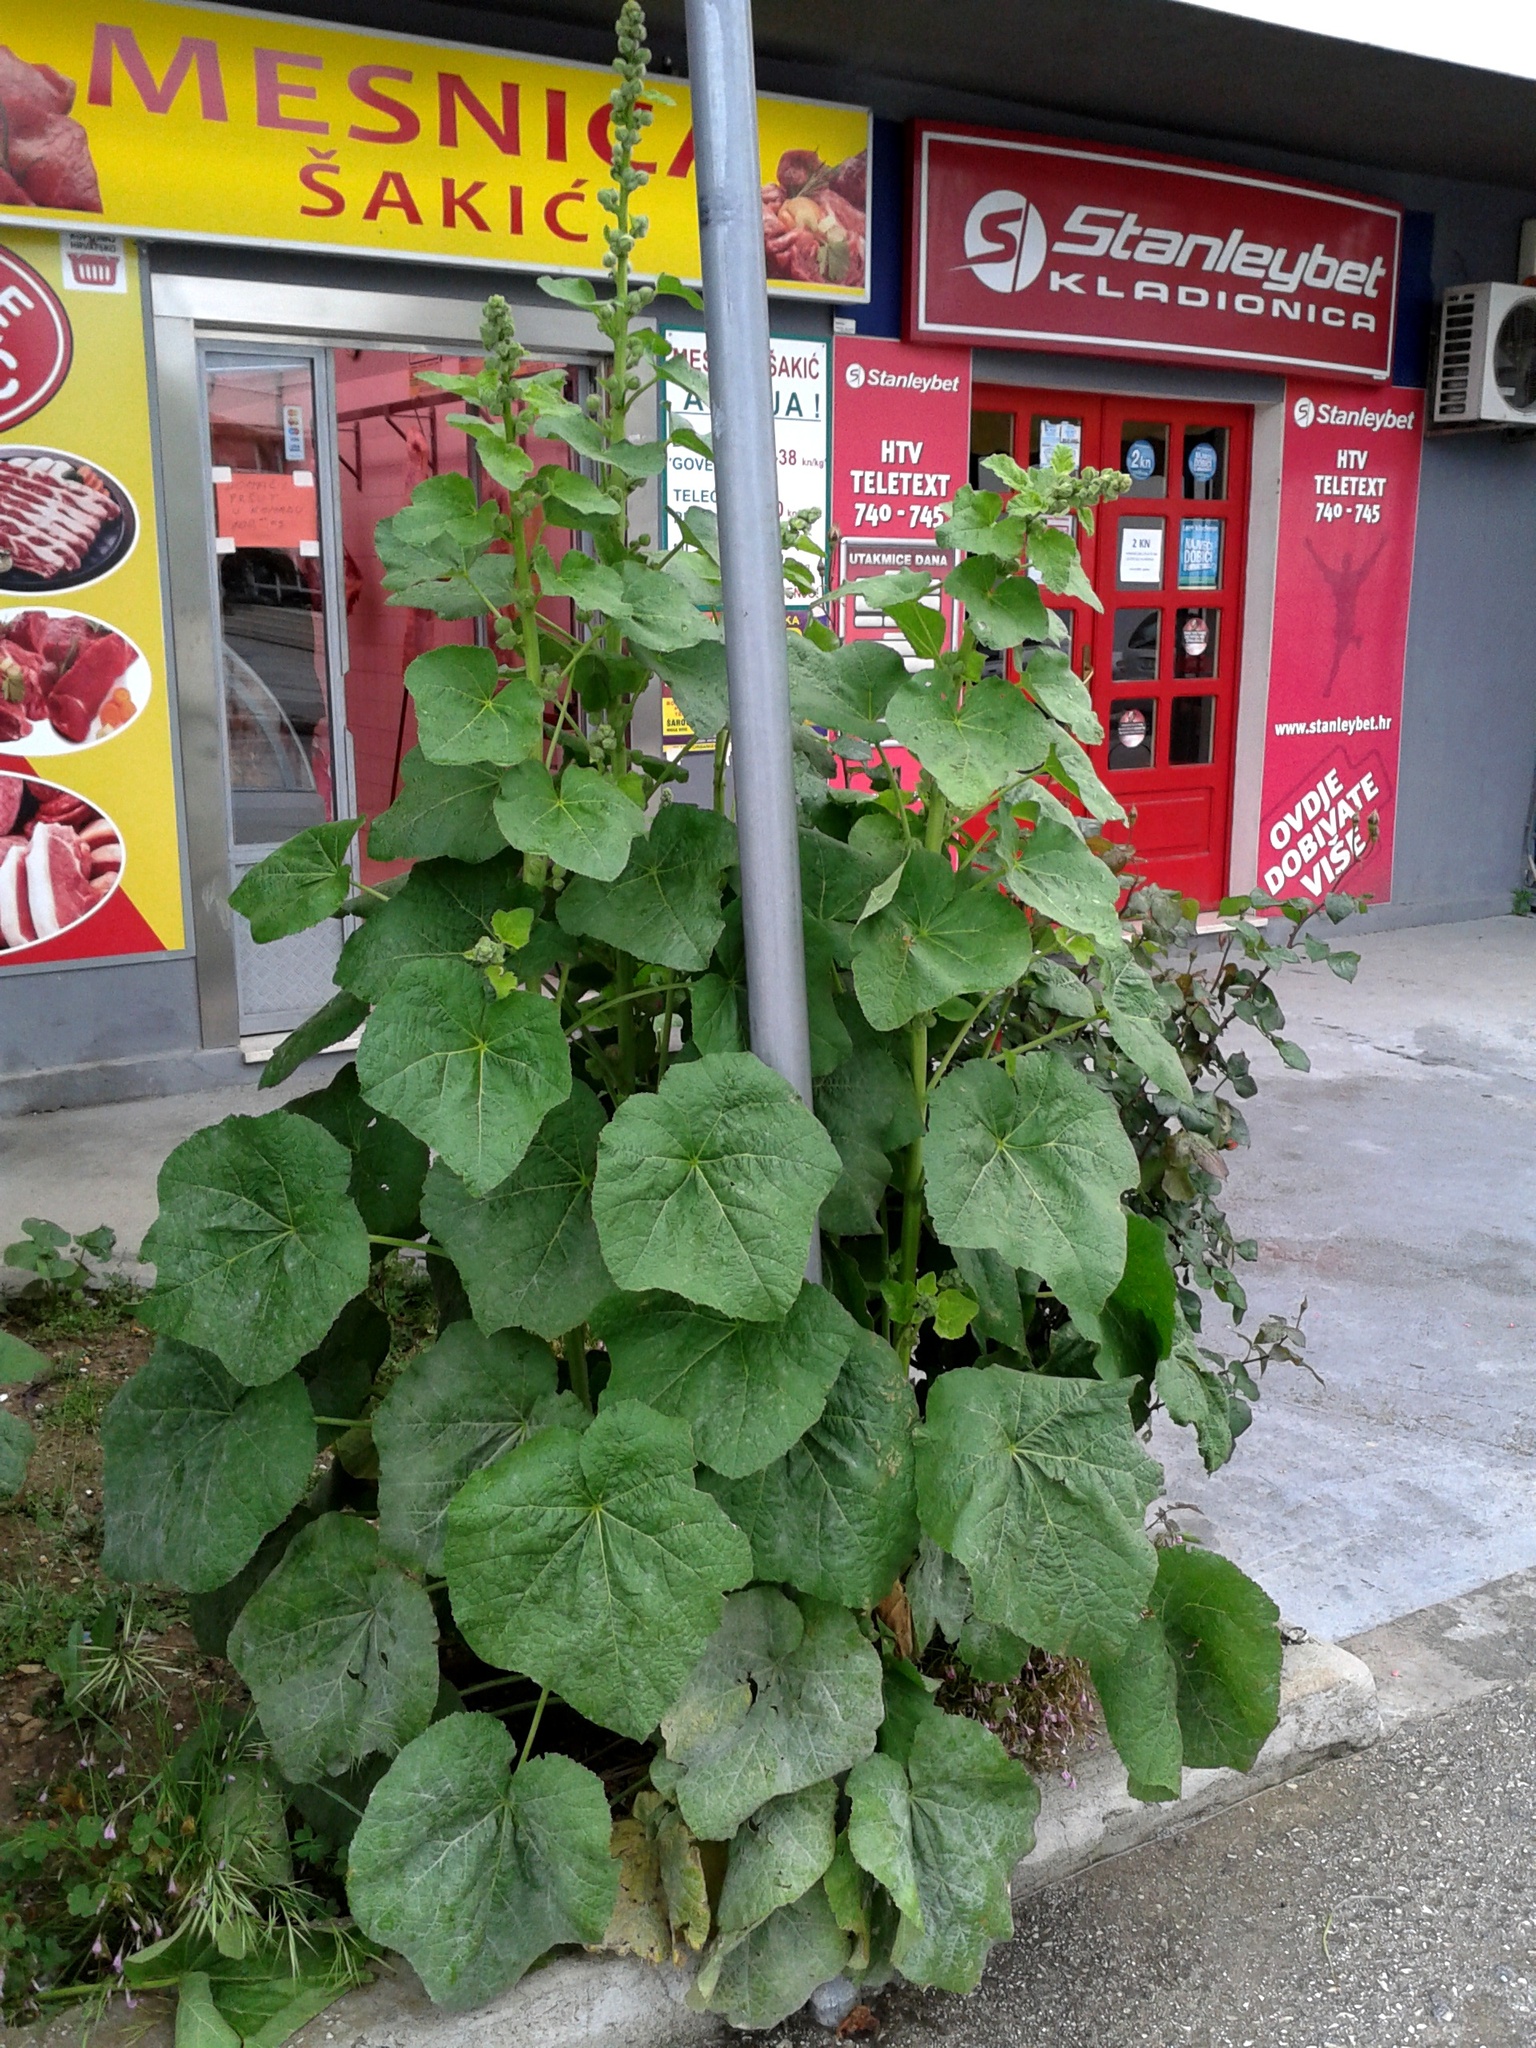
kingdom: Plantae
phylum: Tracheophyta
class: Magnoliopsida
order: Malvales
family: Malvaceae
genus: Alcea
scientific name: Alcea rosea
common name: Hollyhock
